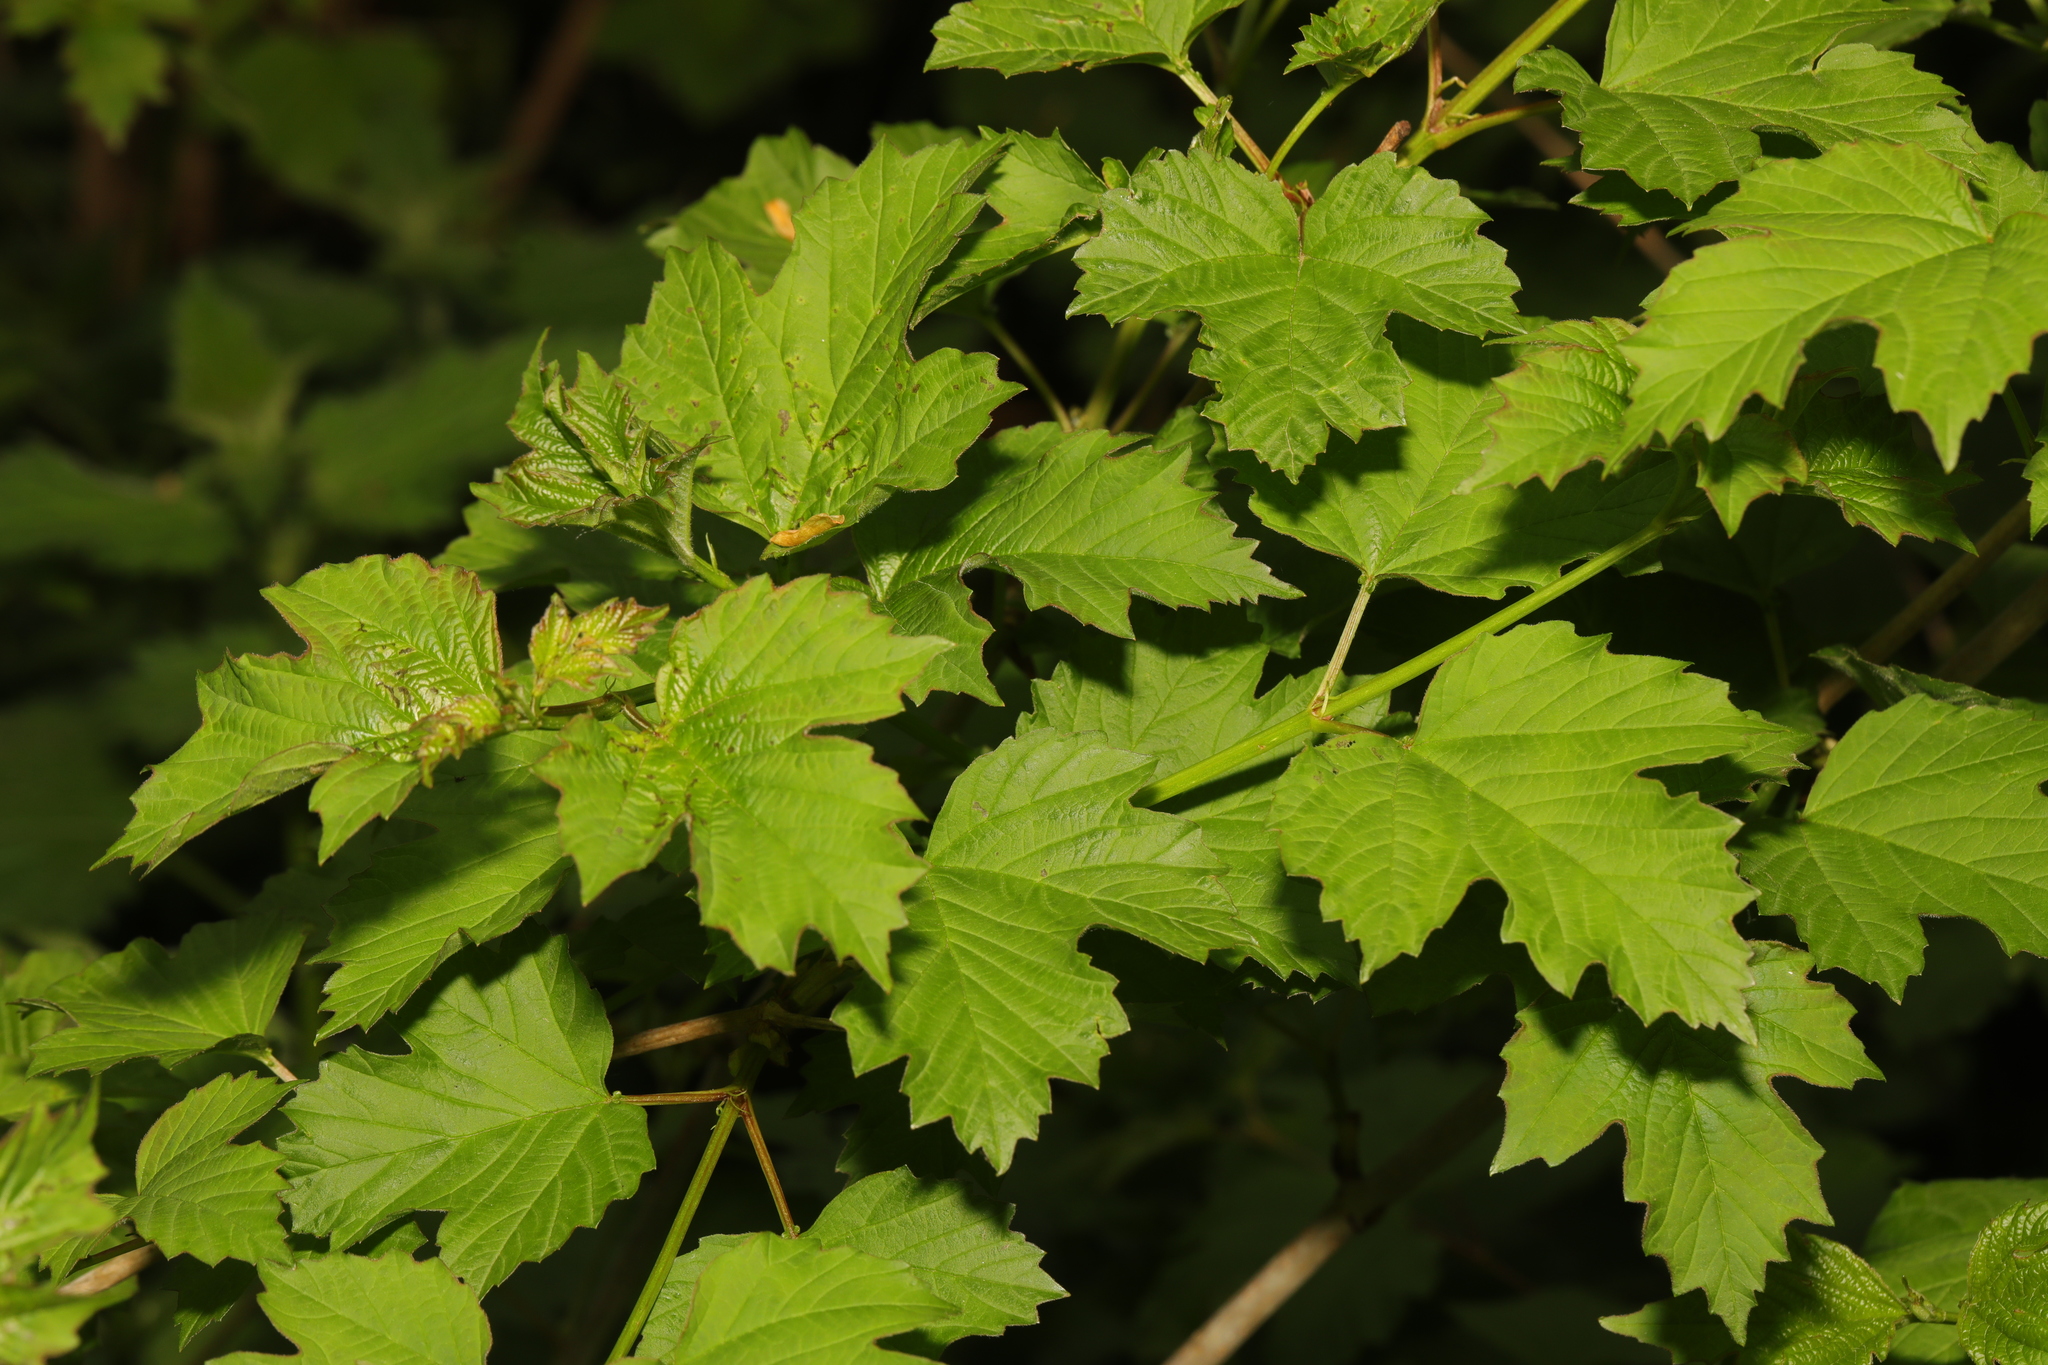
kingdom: Plantae
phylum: Tracheophyta
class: Magnoliopsida
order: Dipsacales
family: Viburnaceae
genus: Viburnum
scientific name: Viburnum opulus
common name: Guelder-rose
